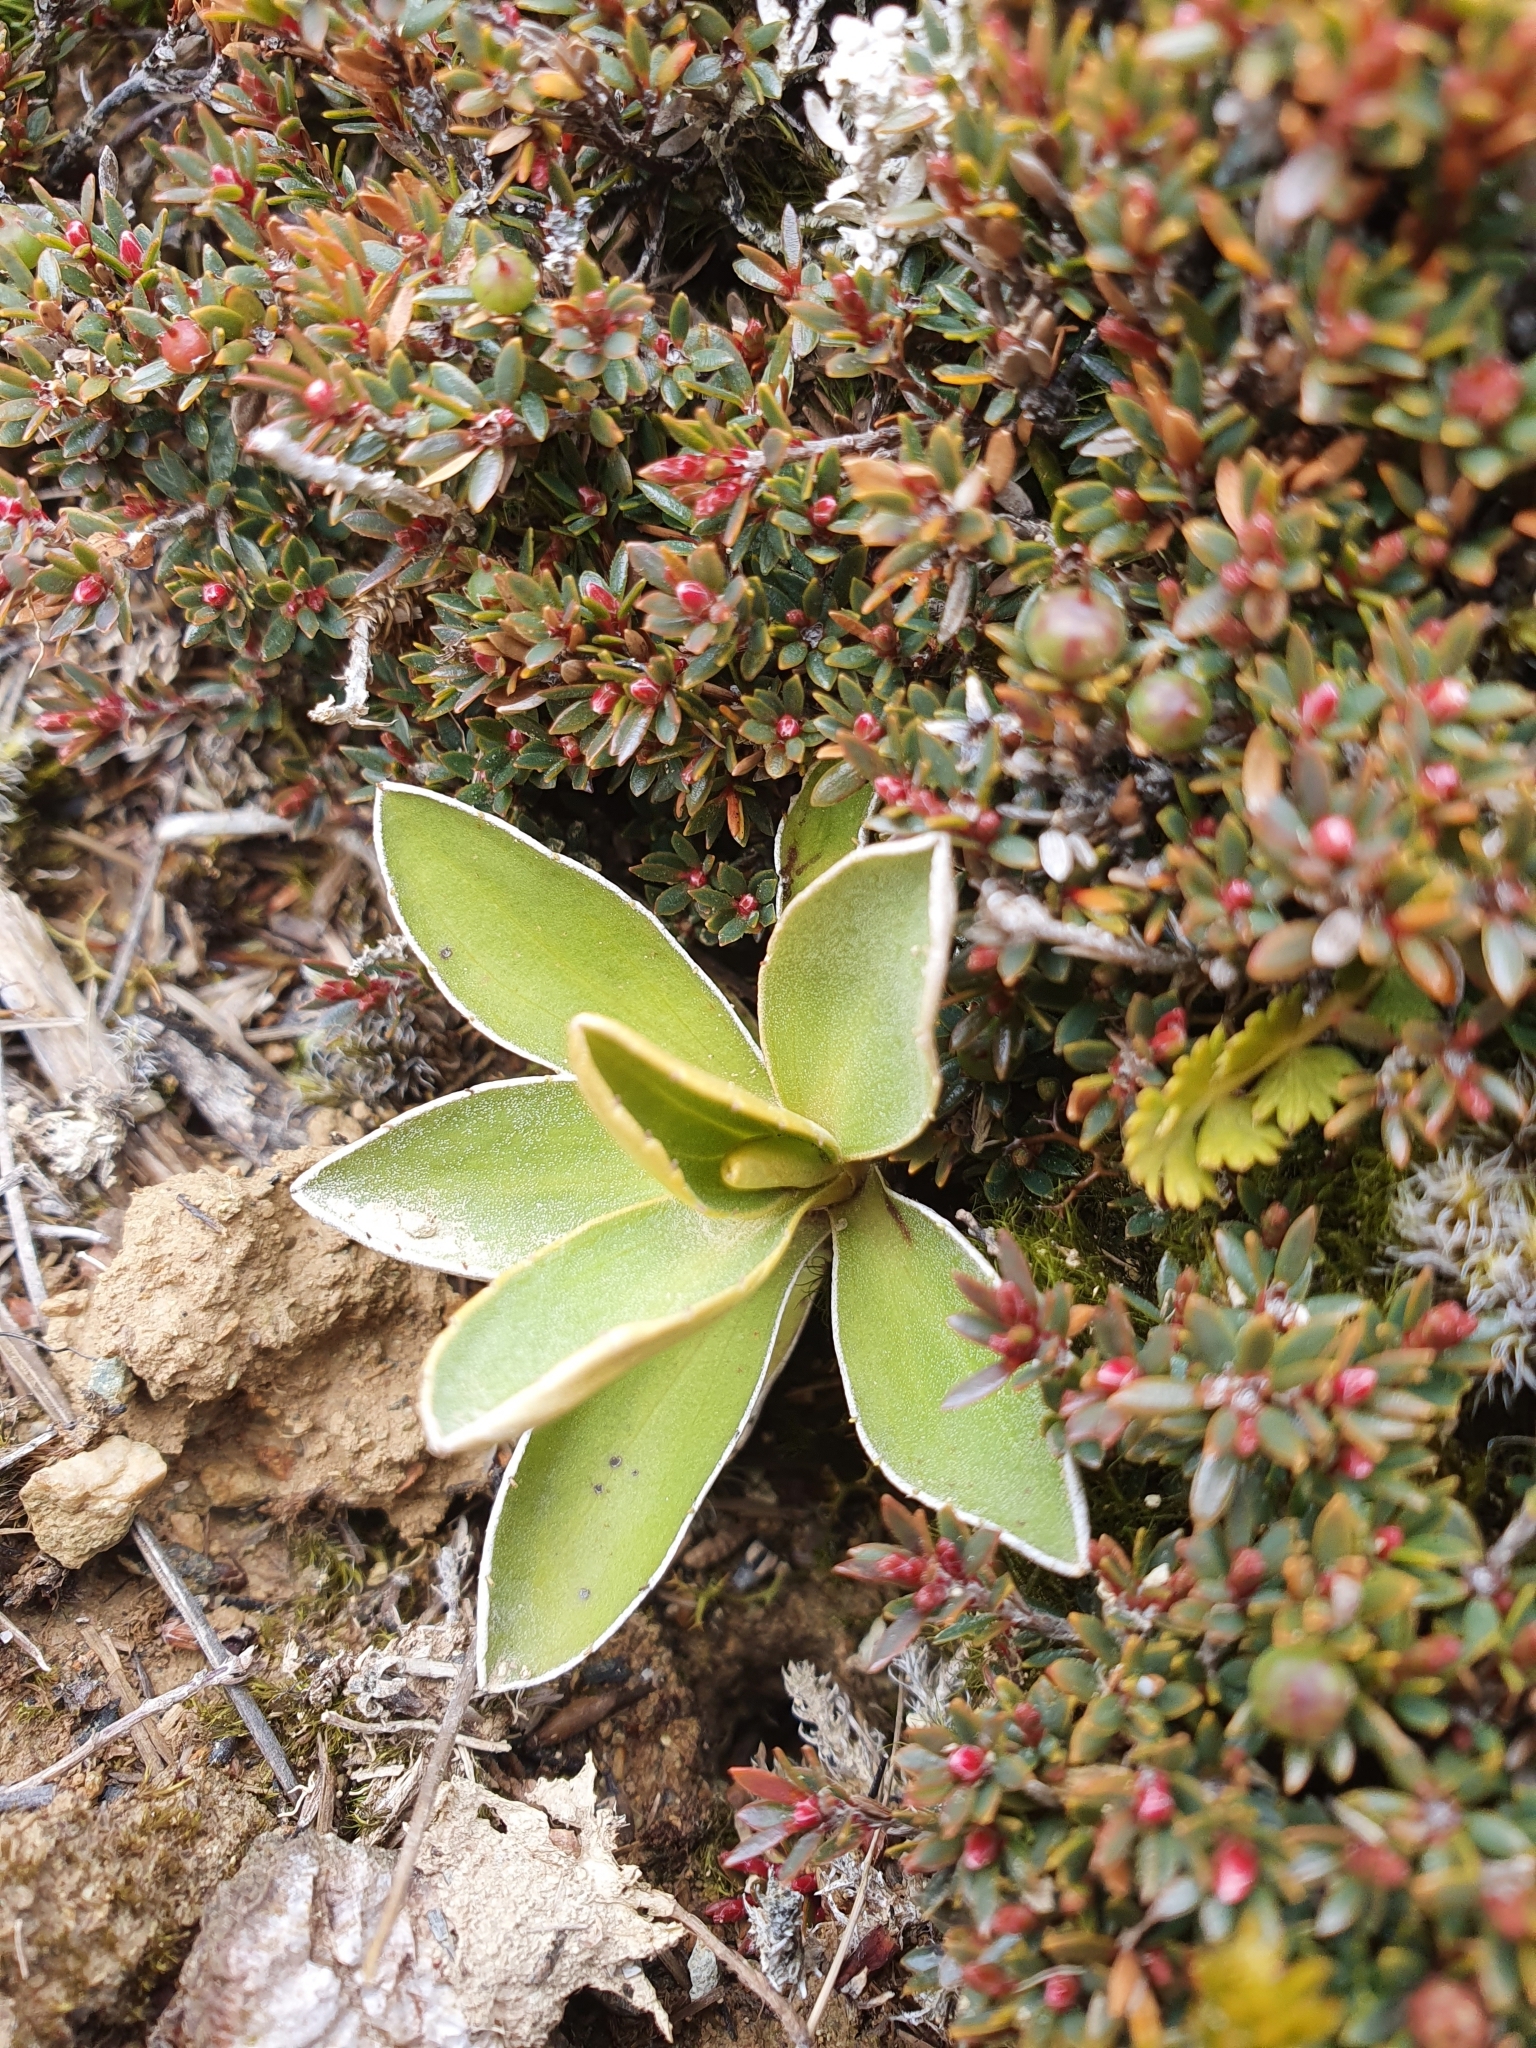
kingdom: Plantae
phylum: Tracheophyta
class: Magnoliopsida
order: Asterales
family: Asteraceae
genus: Celmisia
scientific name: Celmisia hieraciifolia
